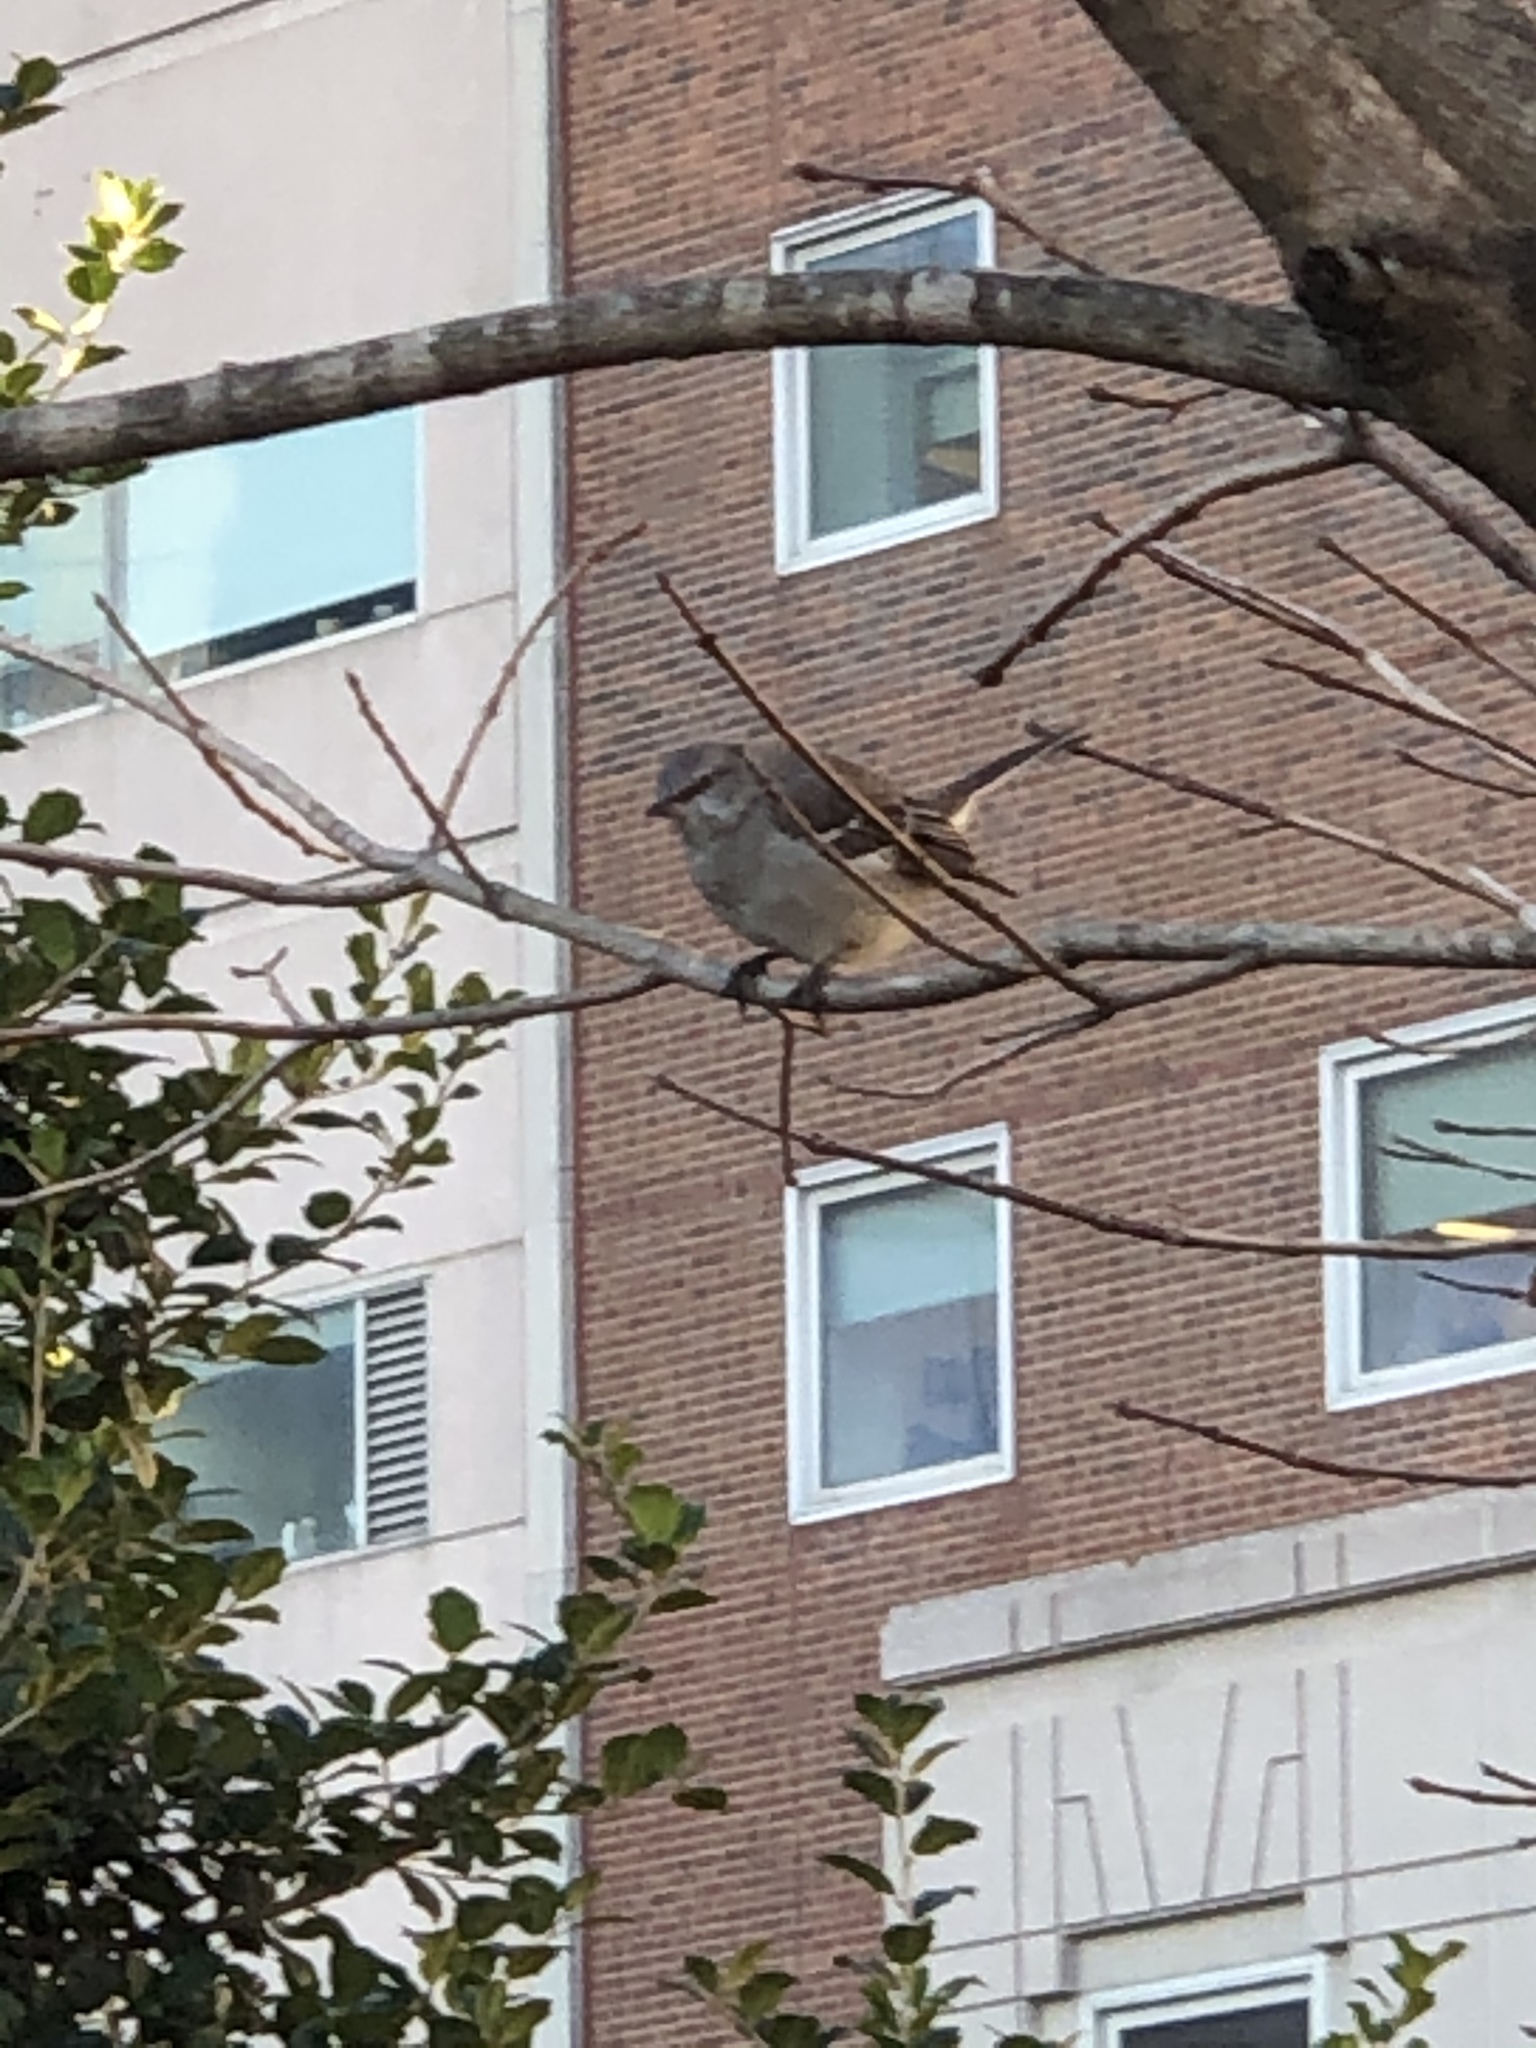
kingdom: Animalia
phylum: Chordata
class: Aves
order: Passeriformes
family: Mimidae
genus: Mimus
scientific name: Mimus polyglottos
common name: Northern mockingbird
